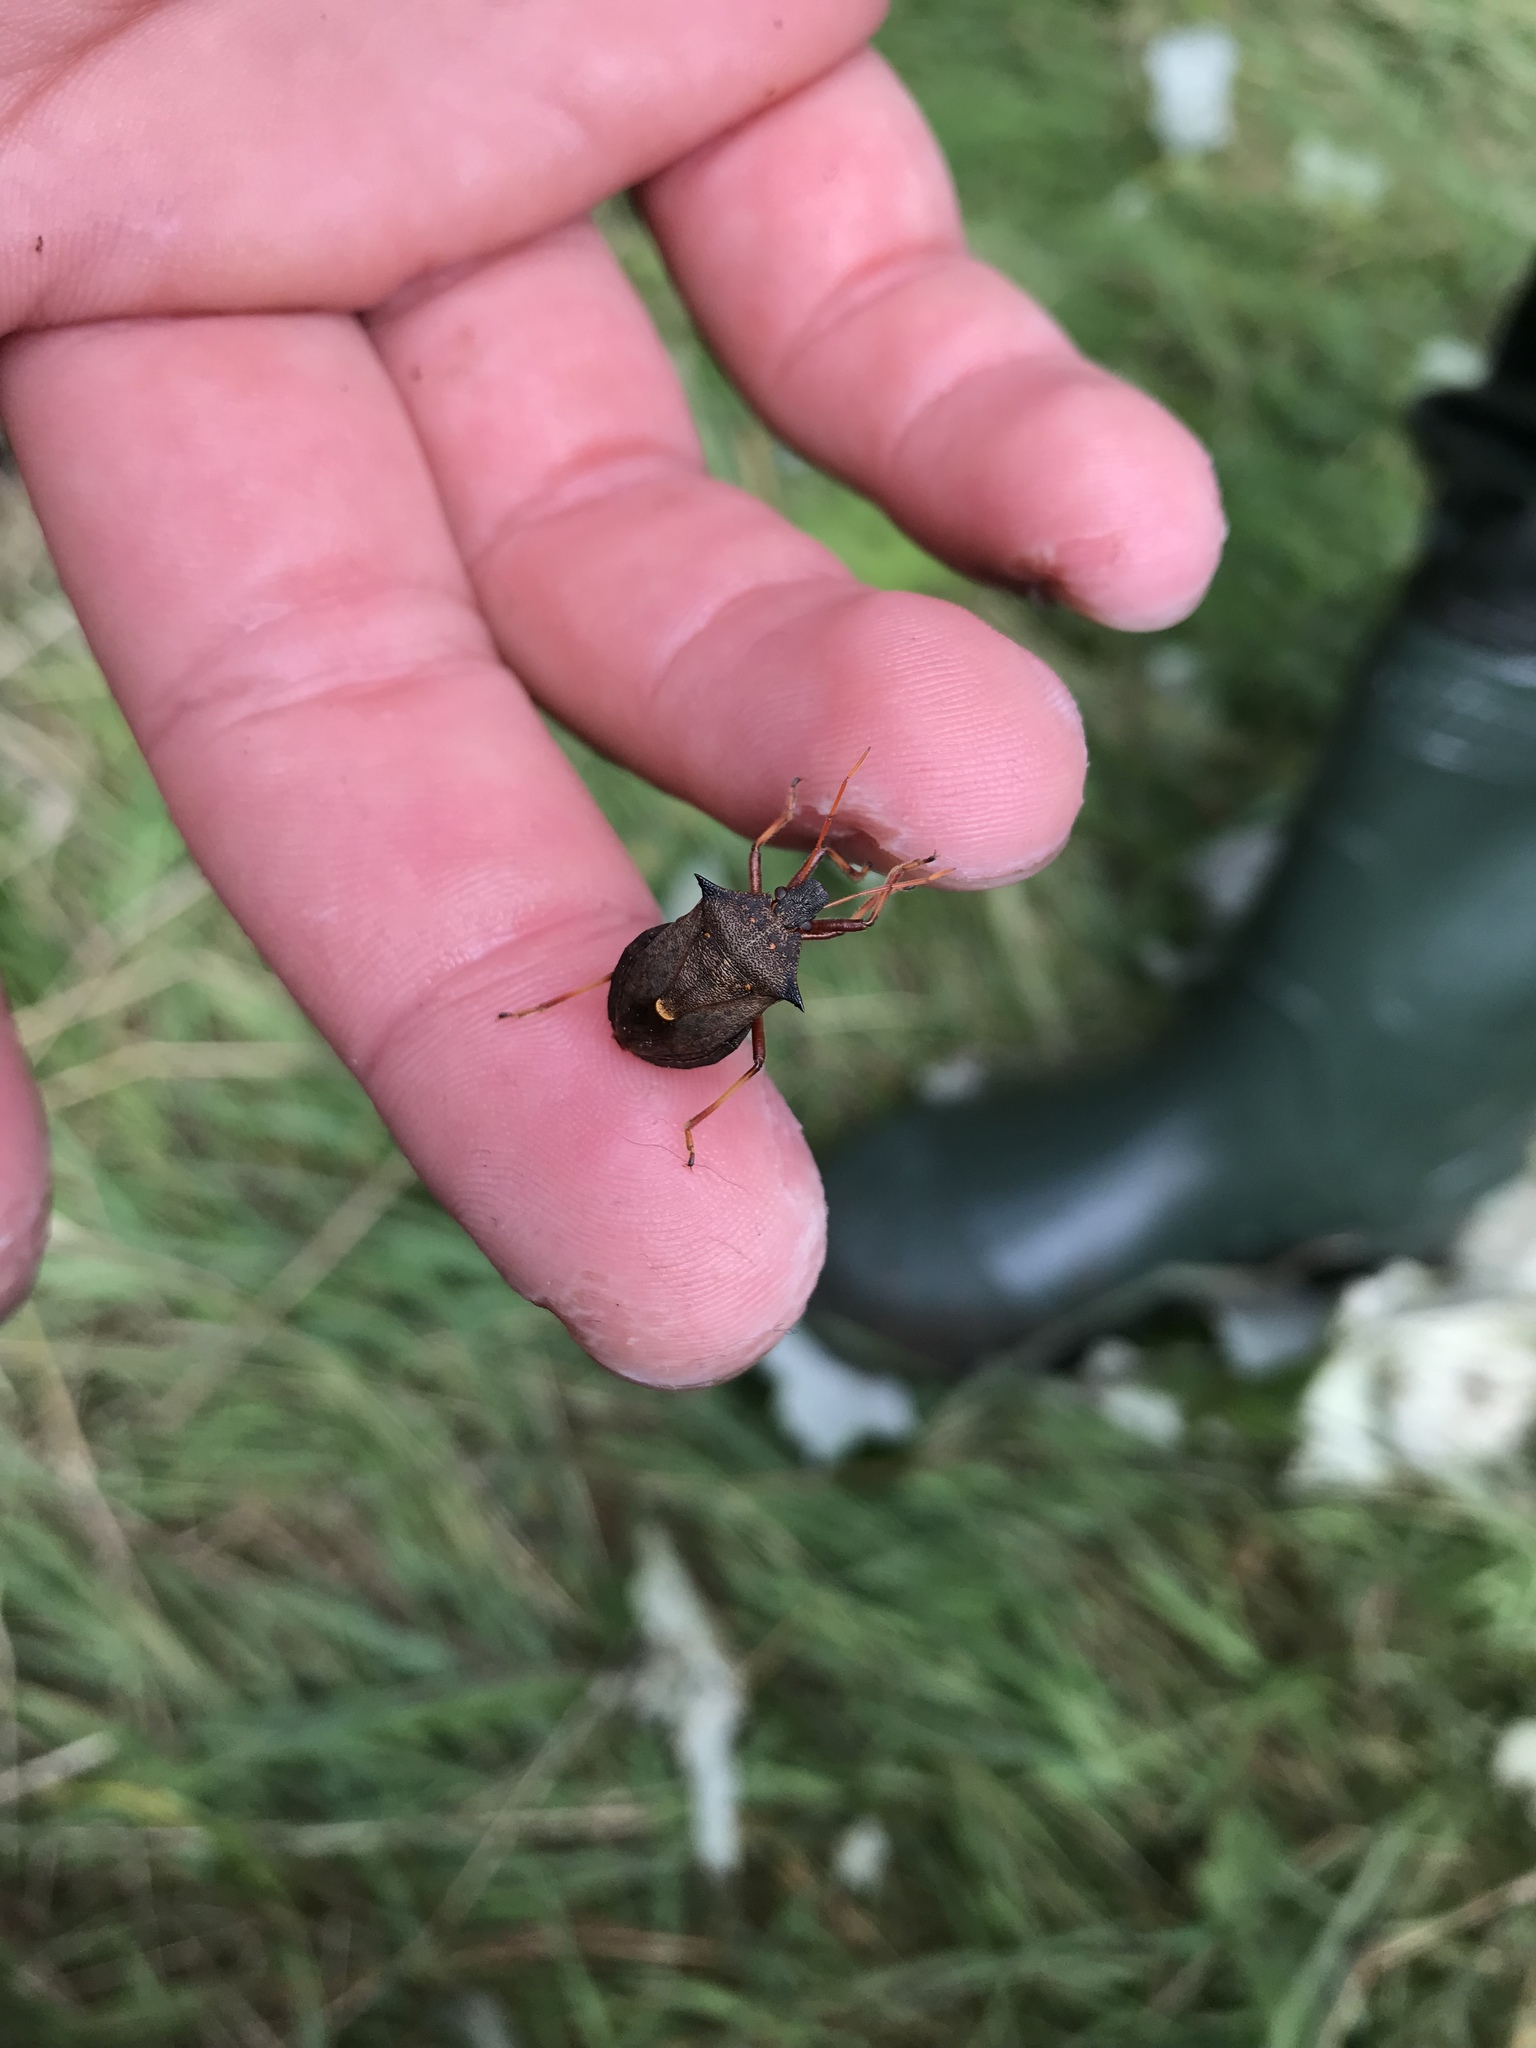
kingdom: Animalia
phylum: Arthropoda
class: Insecta
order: Hemiptera
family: Pentatomidae
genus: Picromerus
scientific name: Picromerus bidens
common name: Spiked shieldbug
